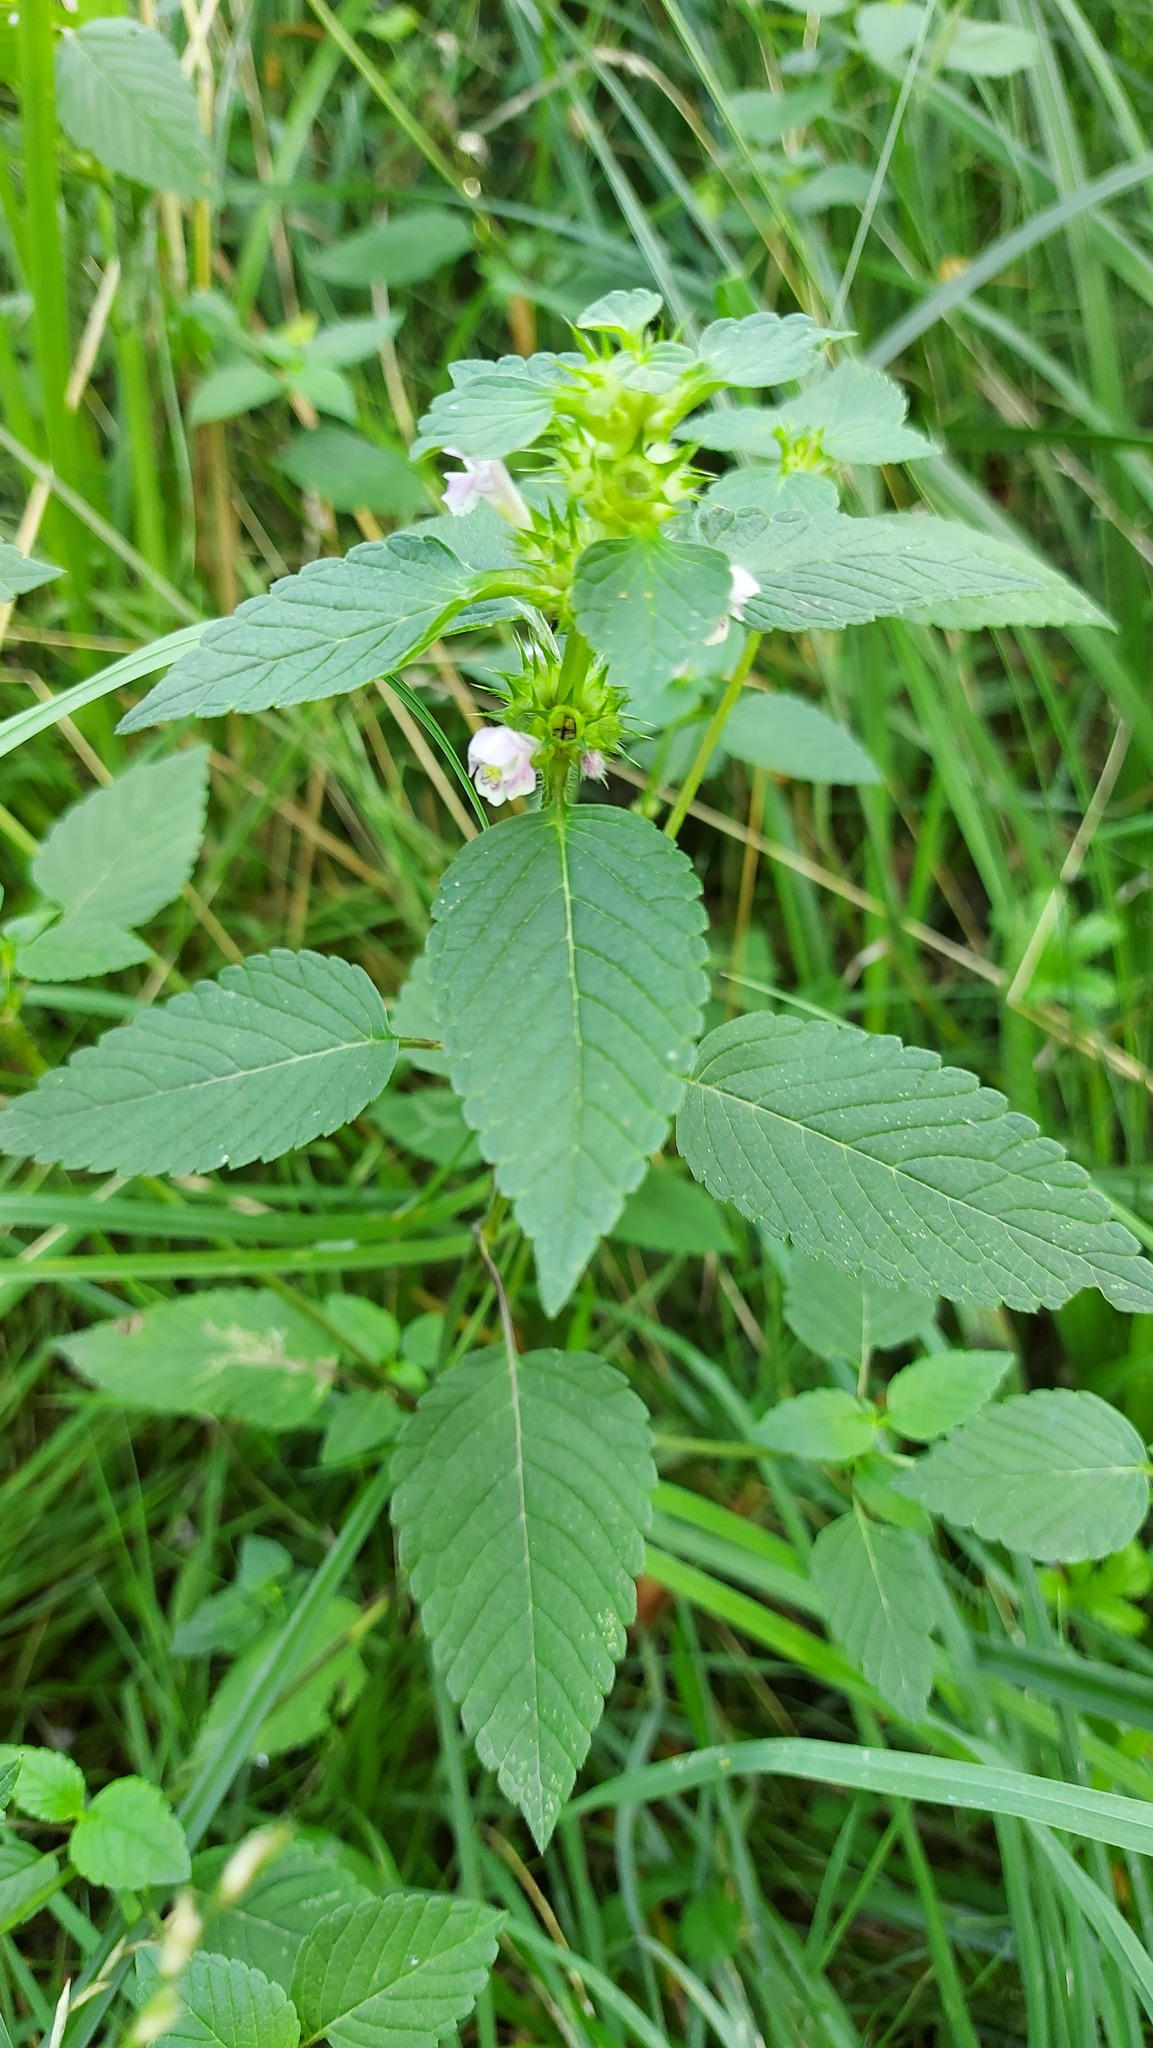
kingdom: Plantae
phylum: Tracheophyta
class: Magnoliopsida
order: Lamiales
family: Lamiaceae
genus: Galeopsis
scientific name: Galeopsis tetrahit
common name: Common hemp-nettle
